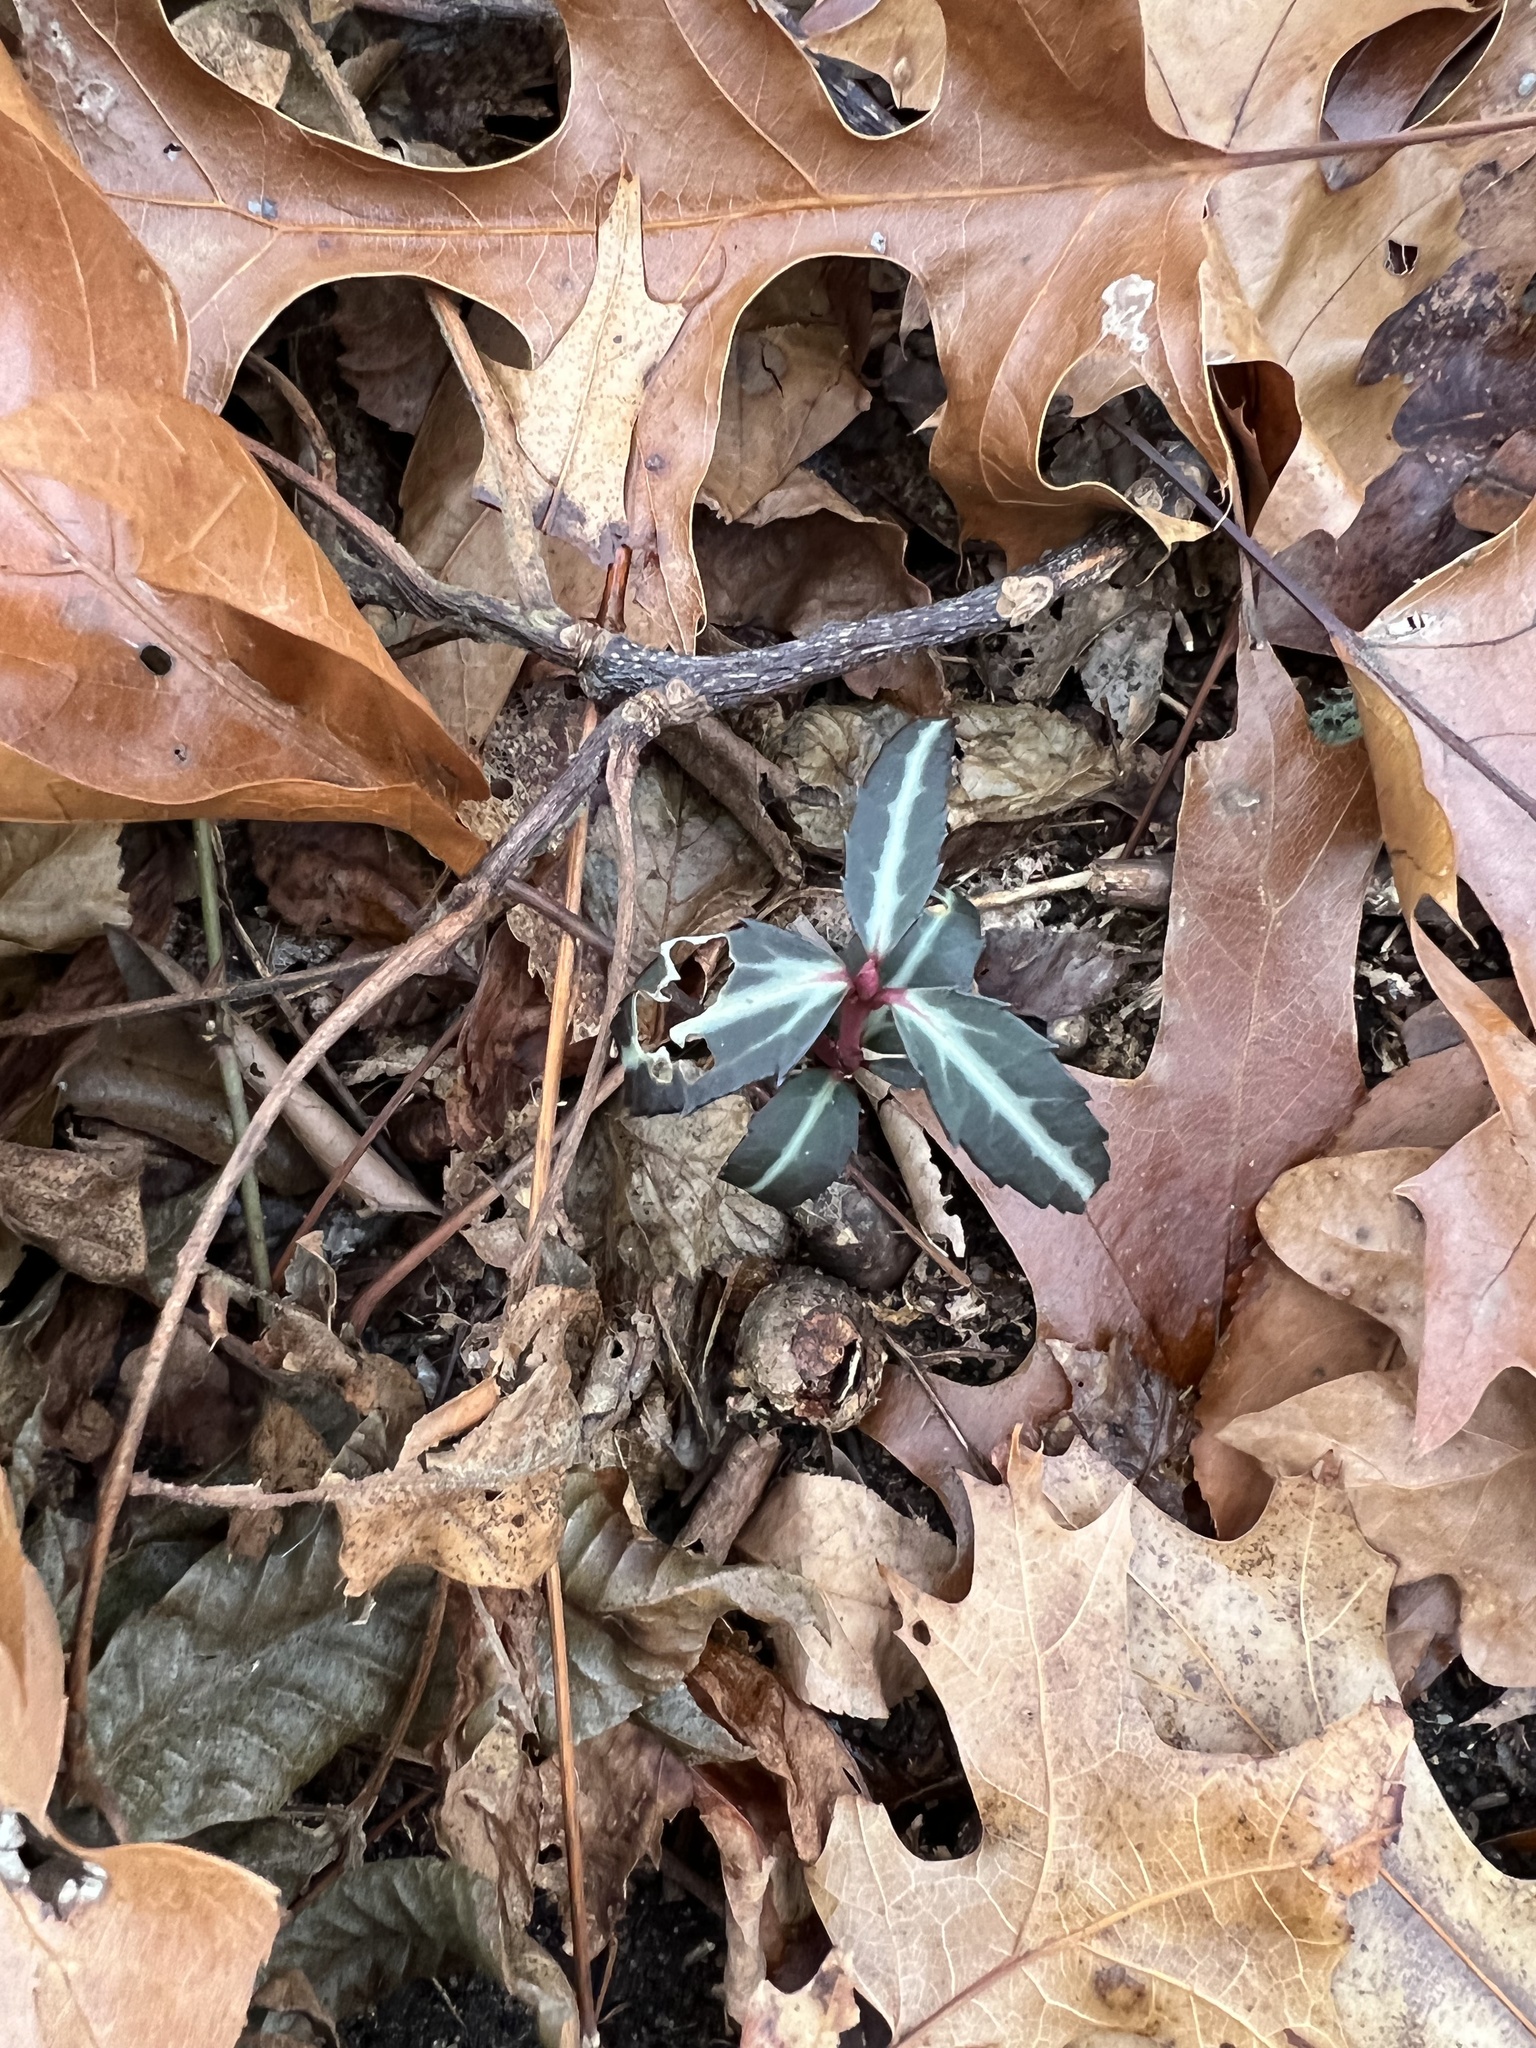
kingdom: Plantae
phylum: Tracheophyta
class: Magnoliopsida
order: Ericales
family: Ericaceae
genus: Chimaphila
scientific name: Chimaphila maculata
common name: Spotted pipsissewa
